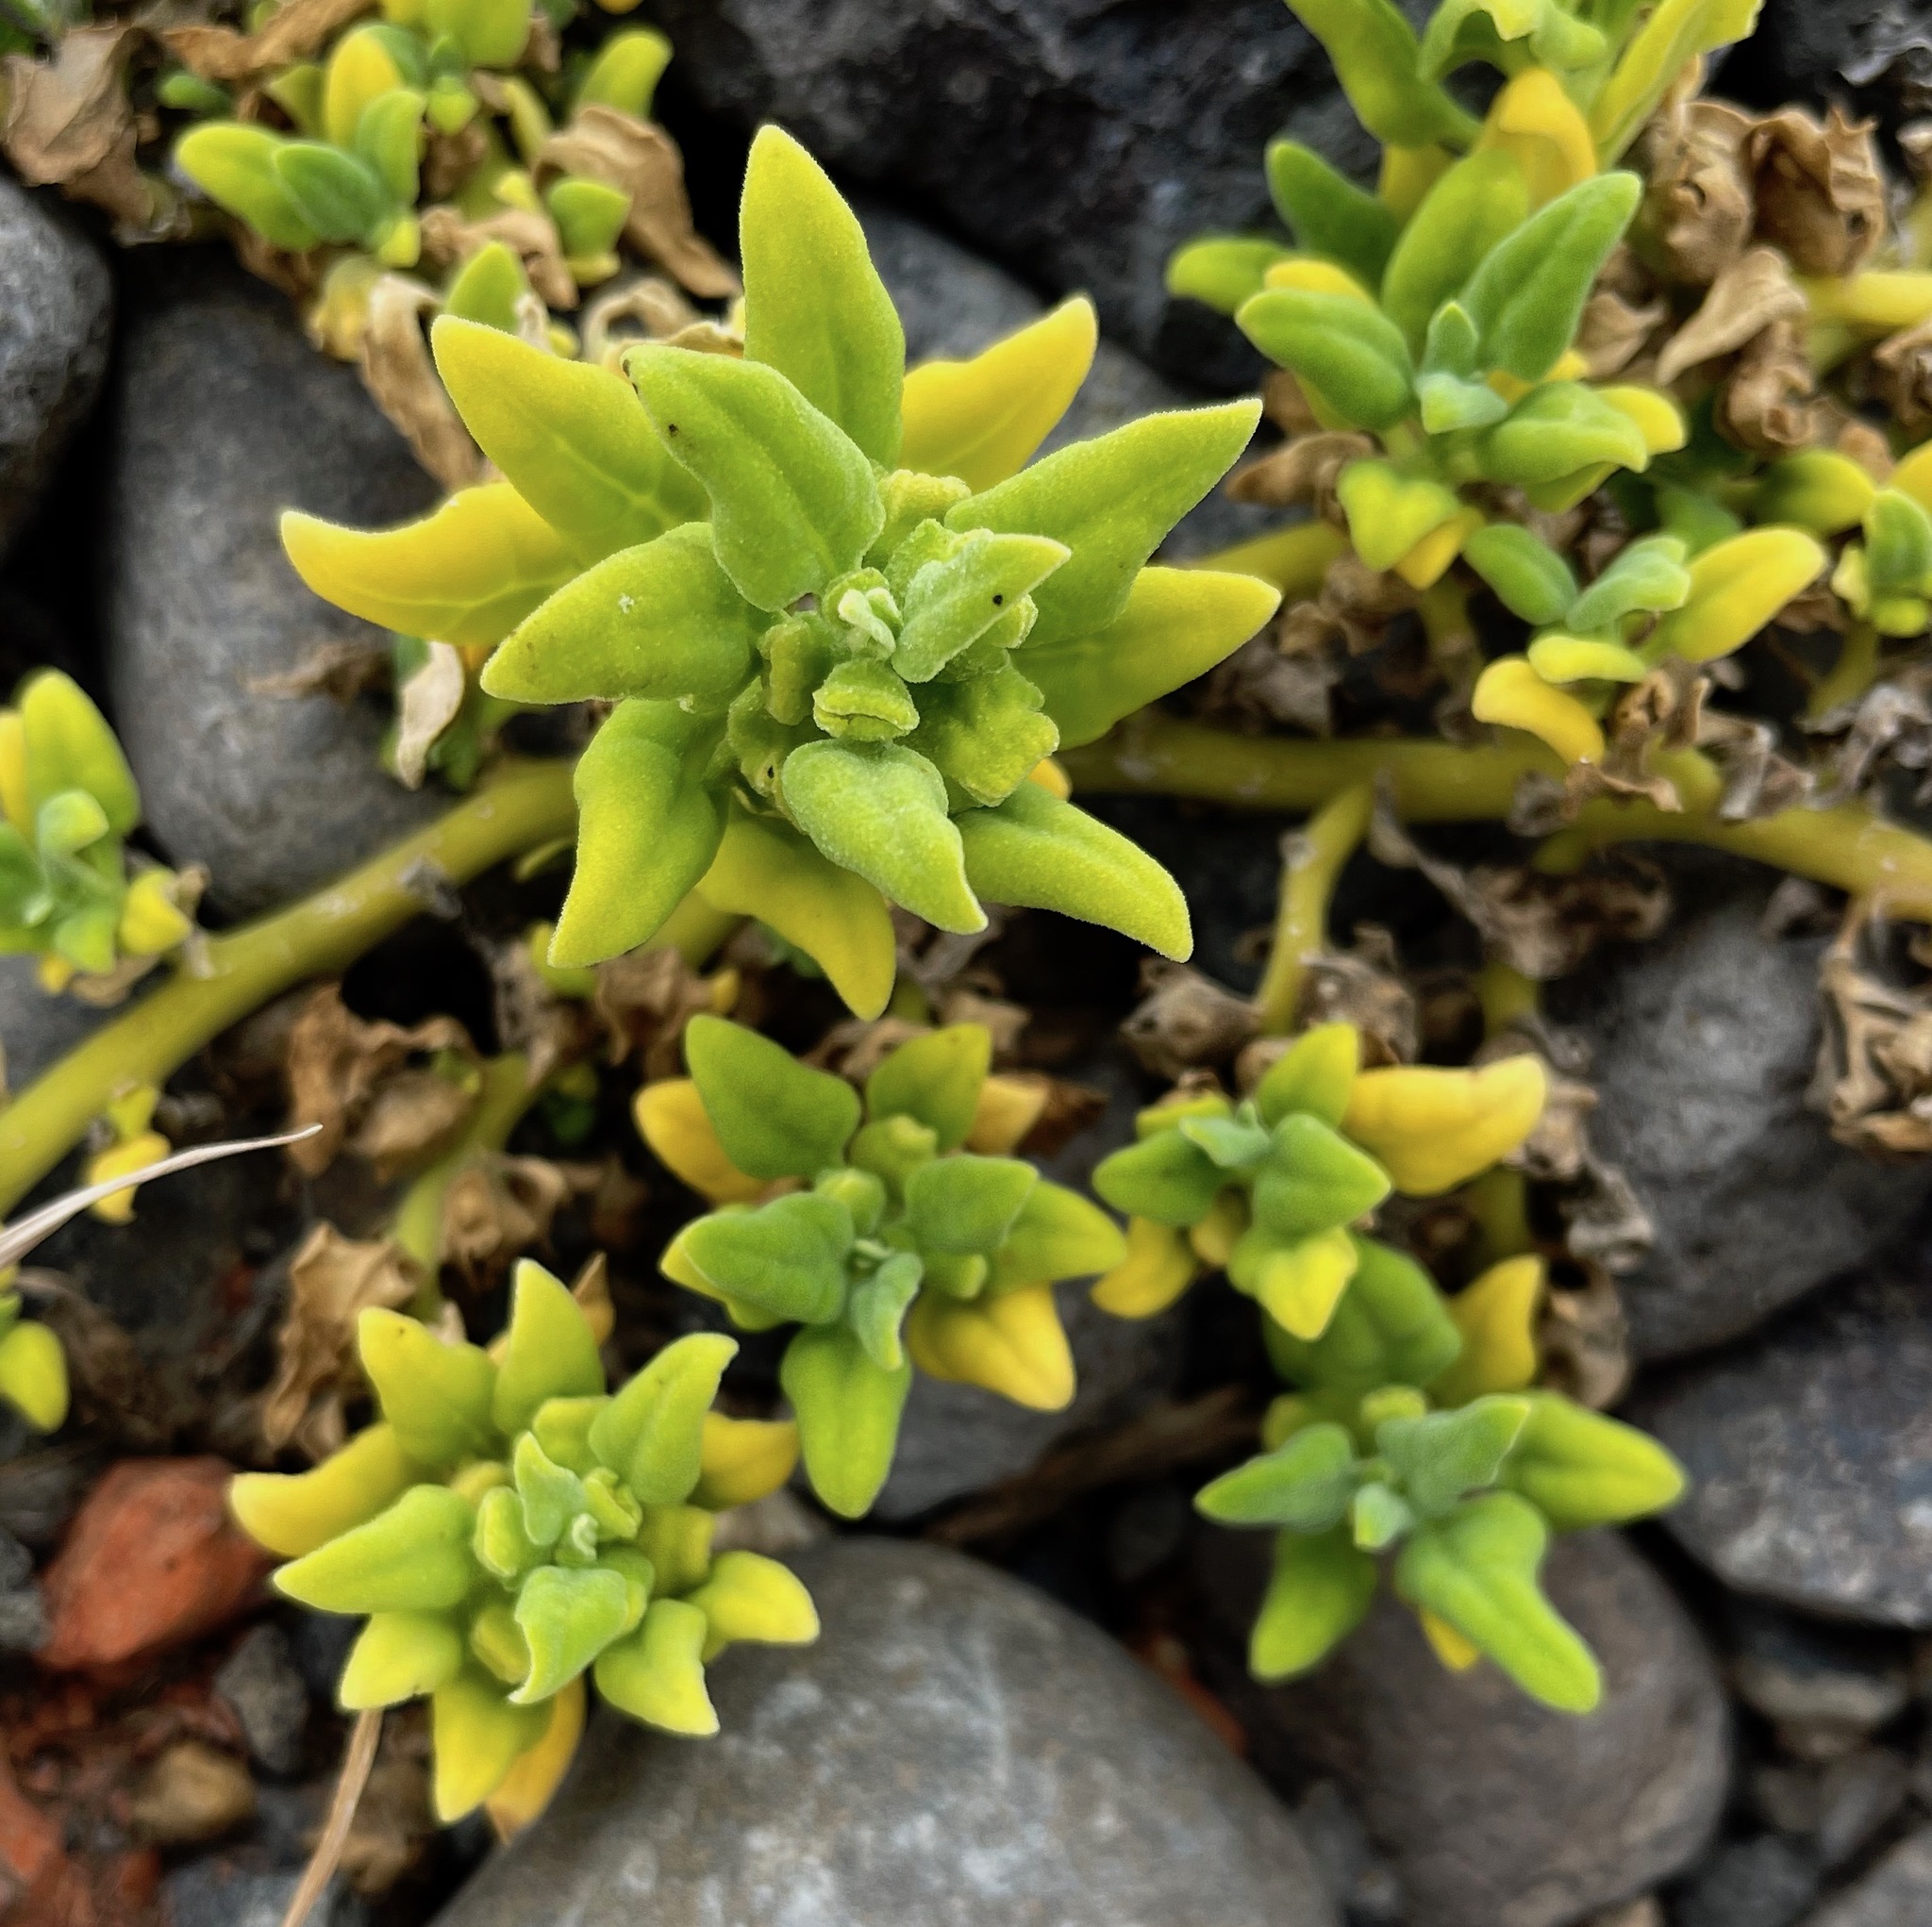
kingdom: Plantae
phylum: Tracheophyta
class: Magnoliopsida
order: Caryophyllales
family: Aizoaceae
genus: Tetragonia
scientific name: Tetragonia tetragonoides
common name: New zealand-spinach
